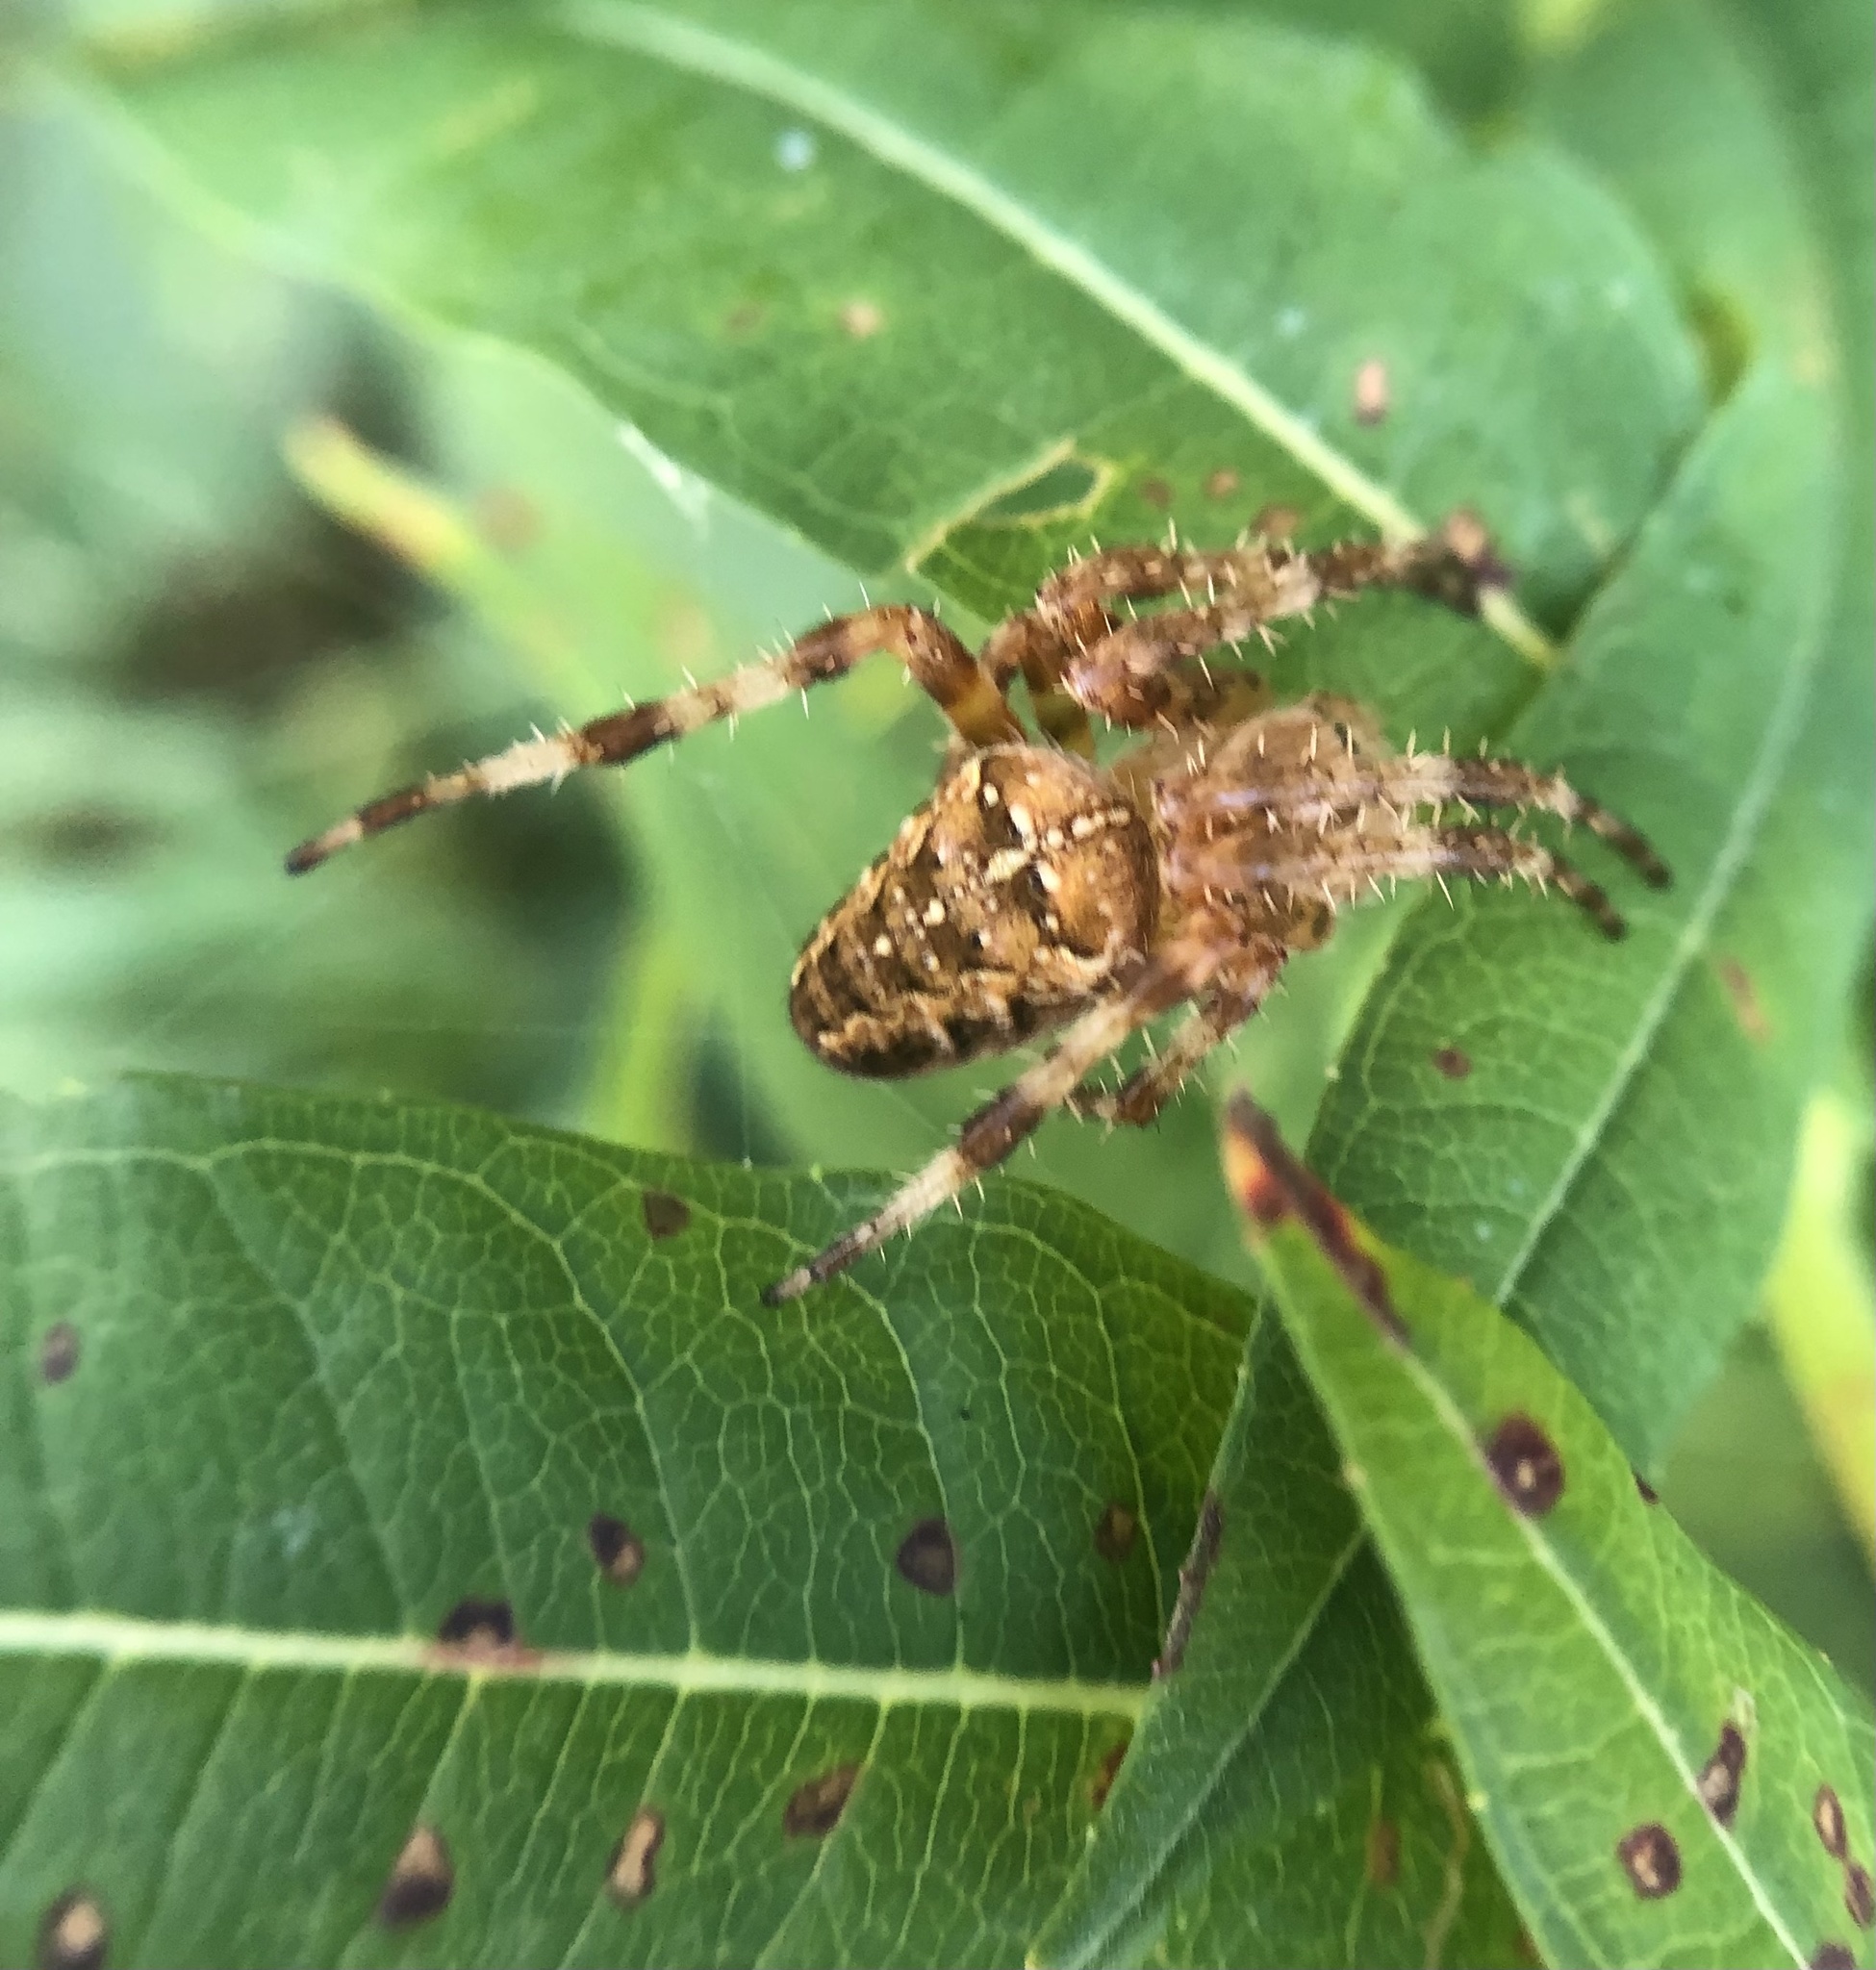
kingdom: Animalia
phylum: Arthropoda
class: Arachnida
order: Araneae
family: Araneidae
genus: Araneus
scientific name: Araneus diadematus
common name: Cross orbweaver
